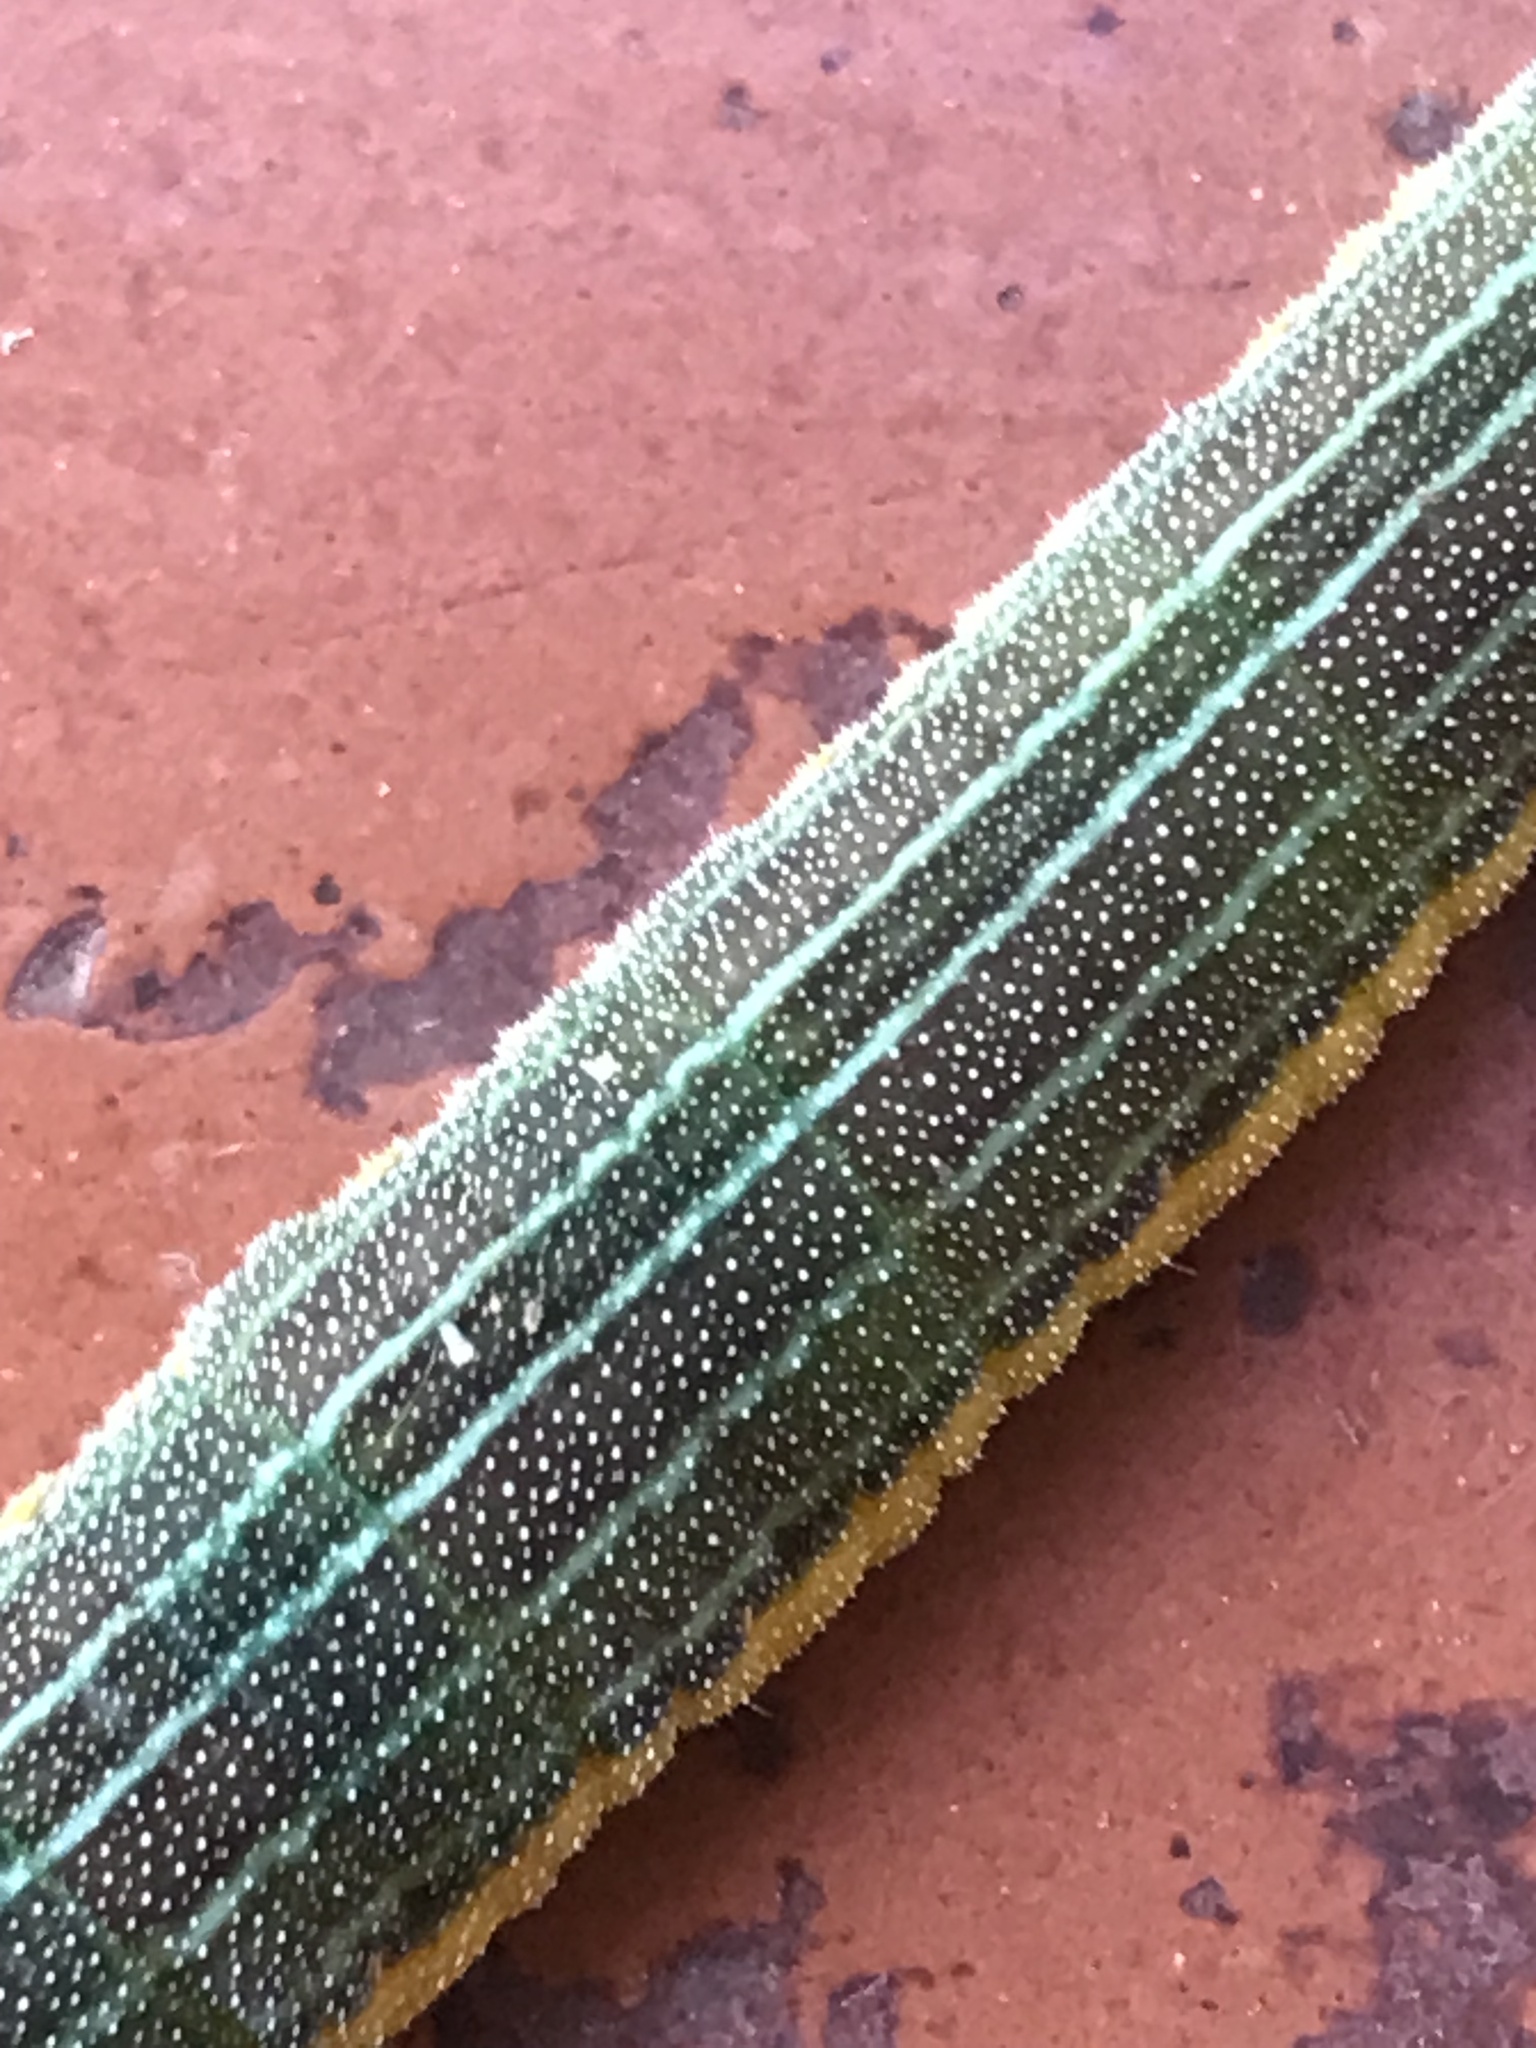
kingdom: Animalia
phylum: Arthropoda
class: Insecta
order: Lepidoptera
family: Nymphalidae
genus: Opsiphanes
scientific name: Opsiphanes invirae
